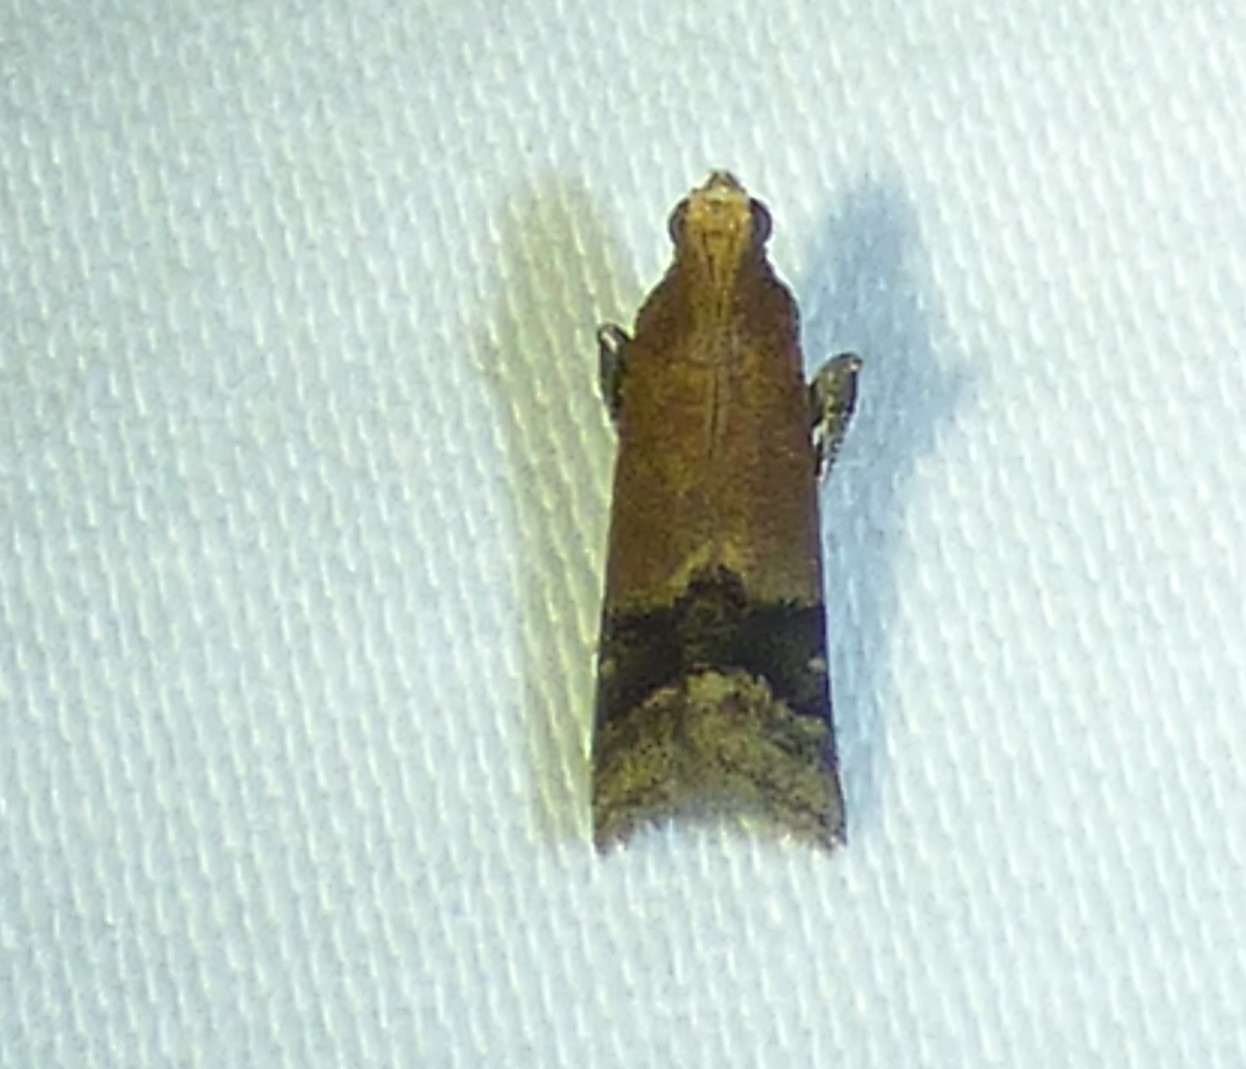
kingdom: Animalia
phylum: Arthropoda
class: Insecta
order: Lepidoptera
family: Pyralidae
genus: Eulogia
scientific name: Eulogia ochrifrontella
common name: Broad-banded eulogia moth
